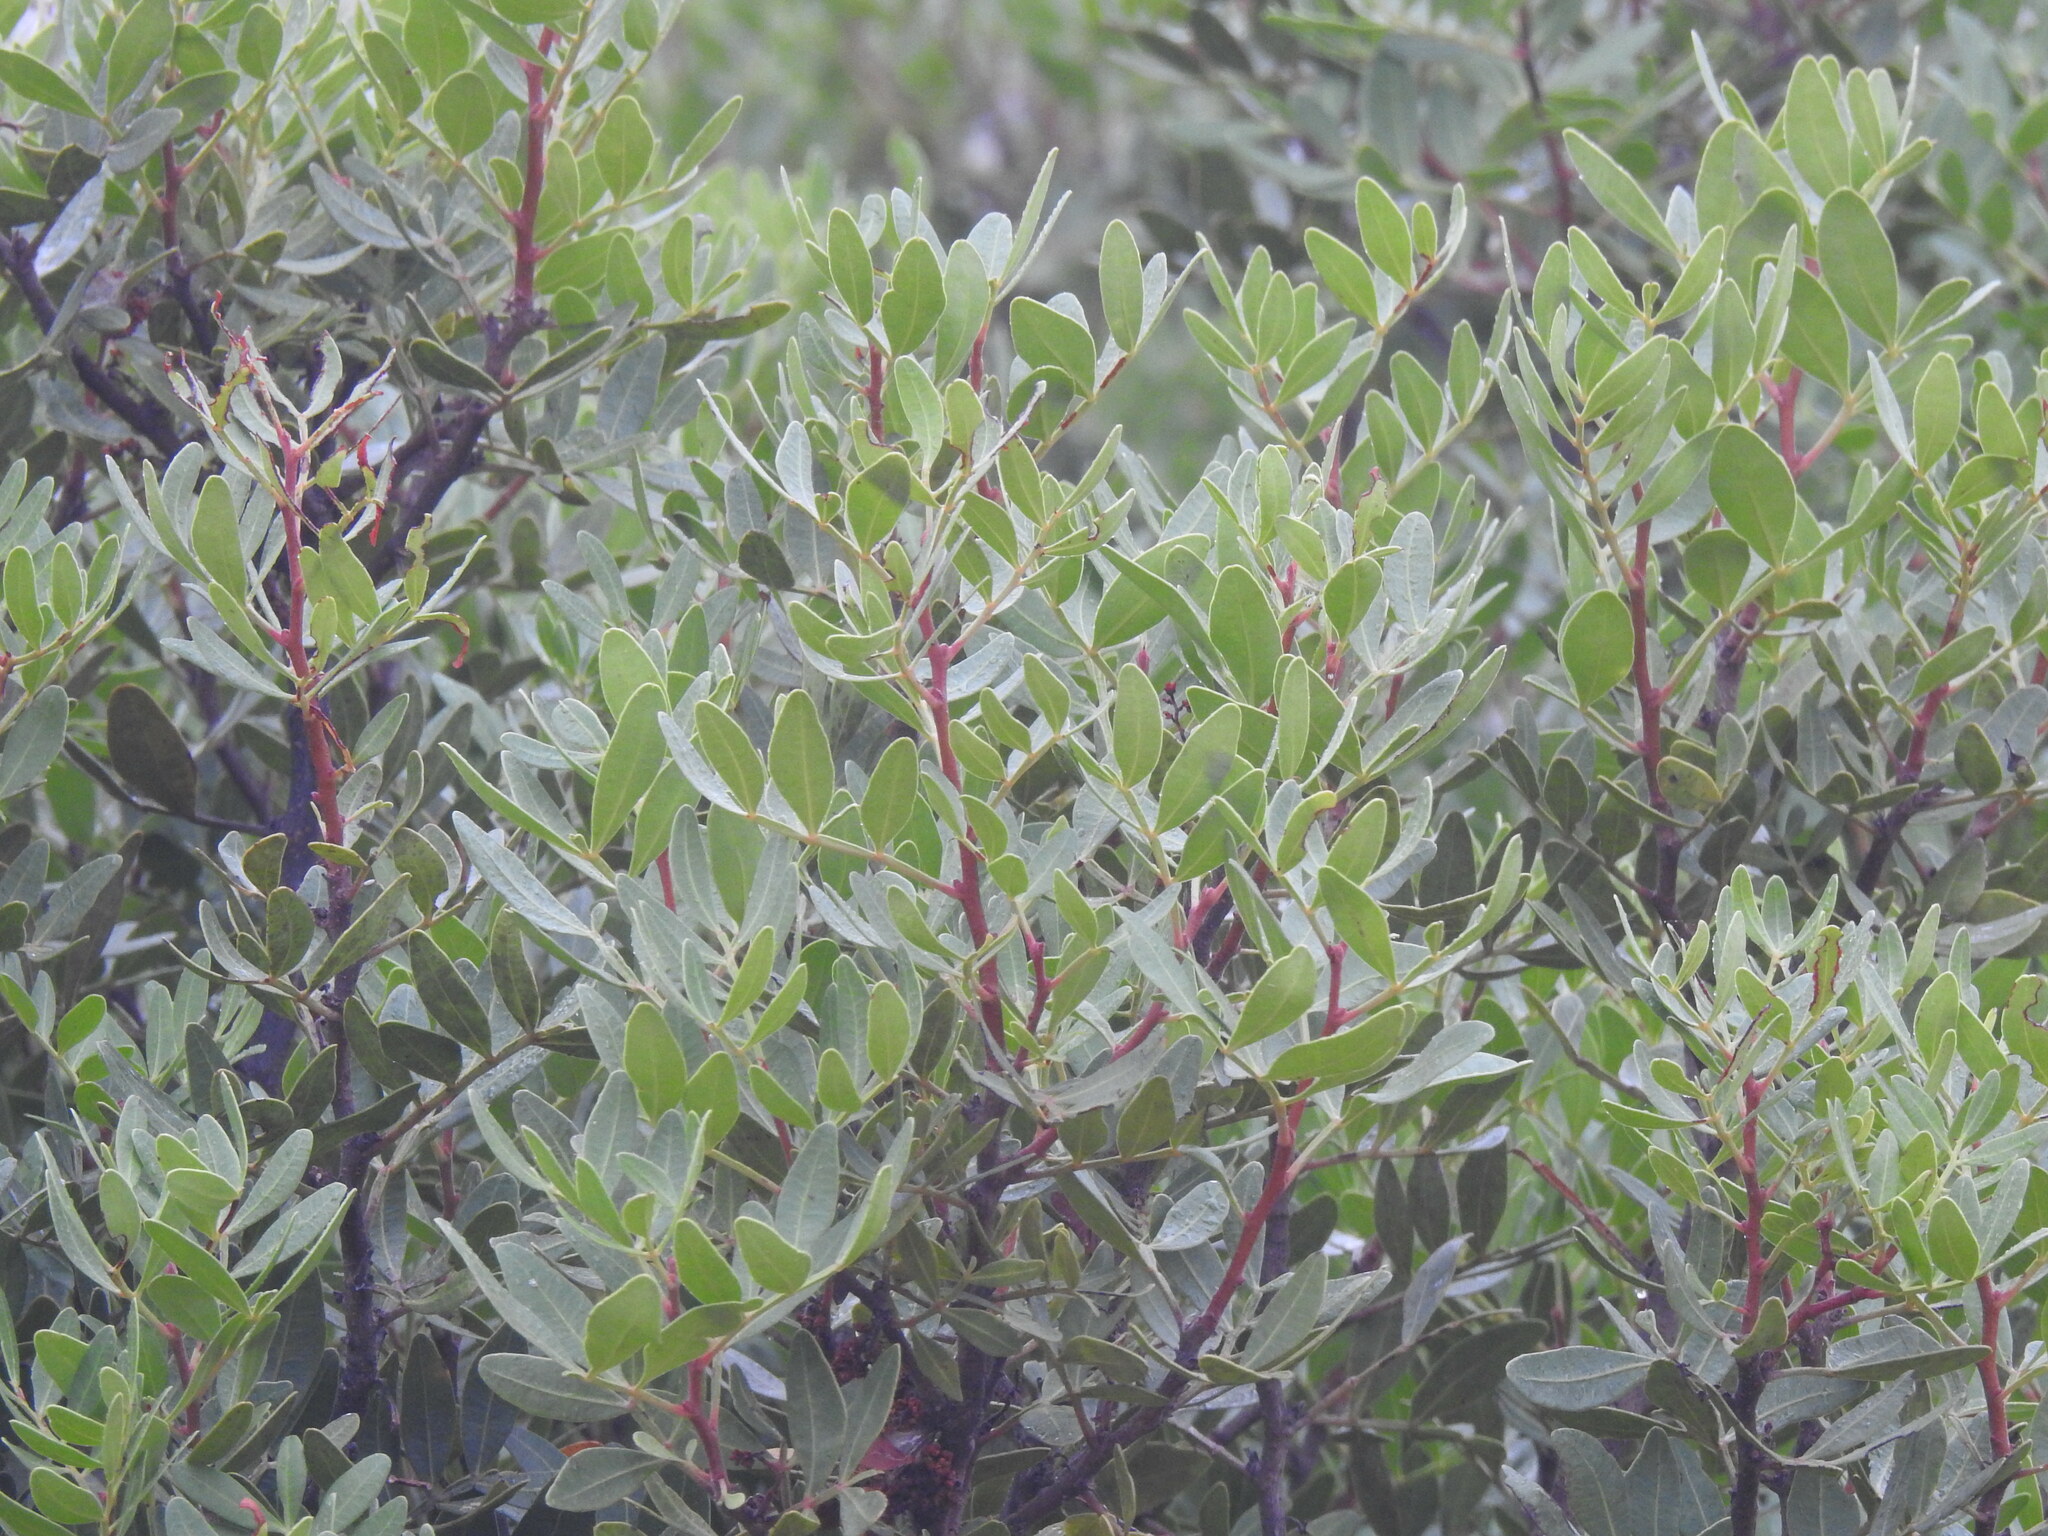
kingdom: Plantae
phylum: Tracheophyta
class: Magnoliopsida
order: Sapindales
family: Anacardiaceae
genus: Pistacia
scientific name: Pistacia lentiscus
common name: Lentisk
